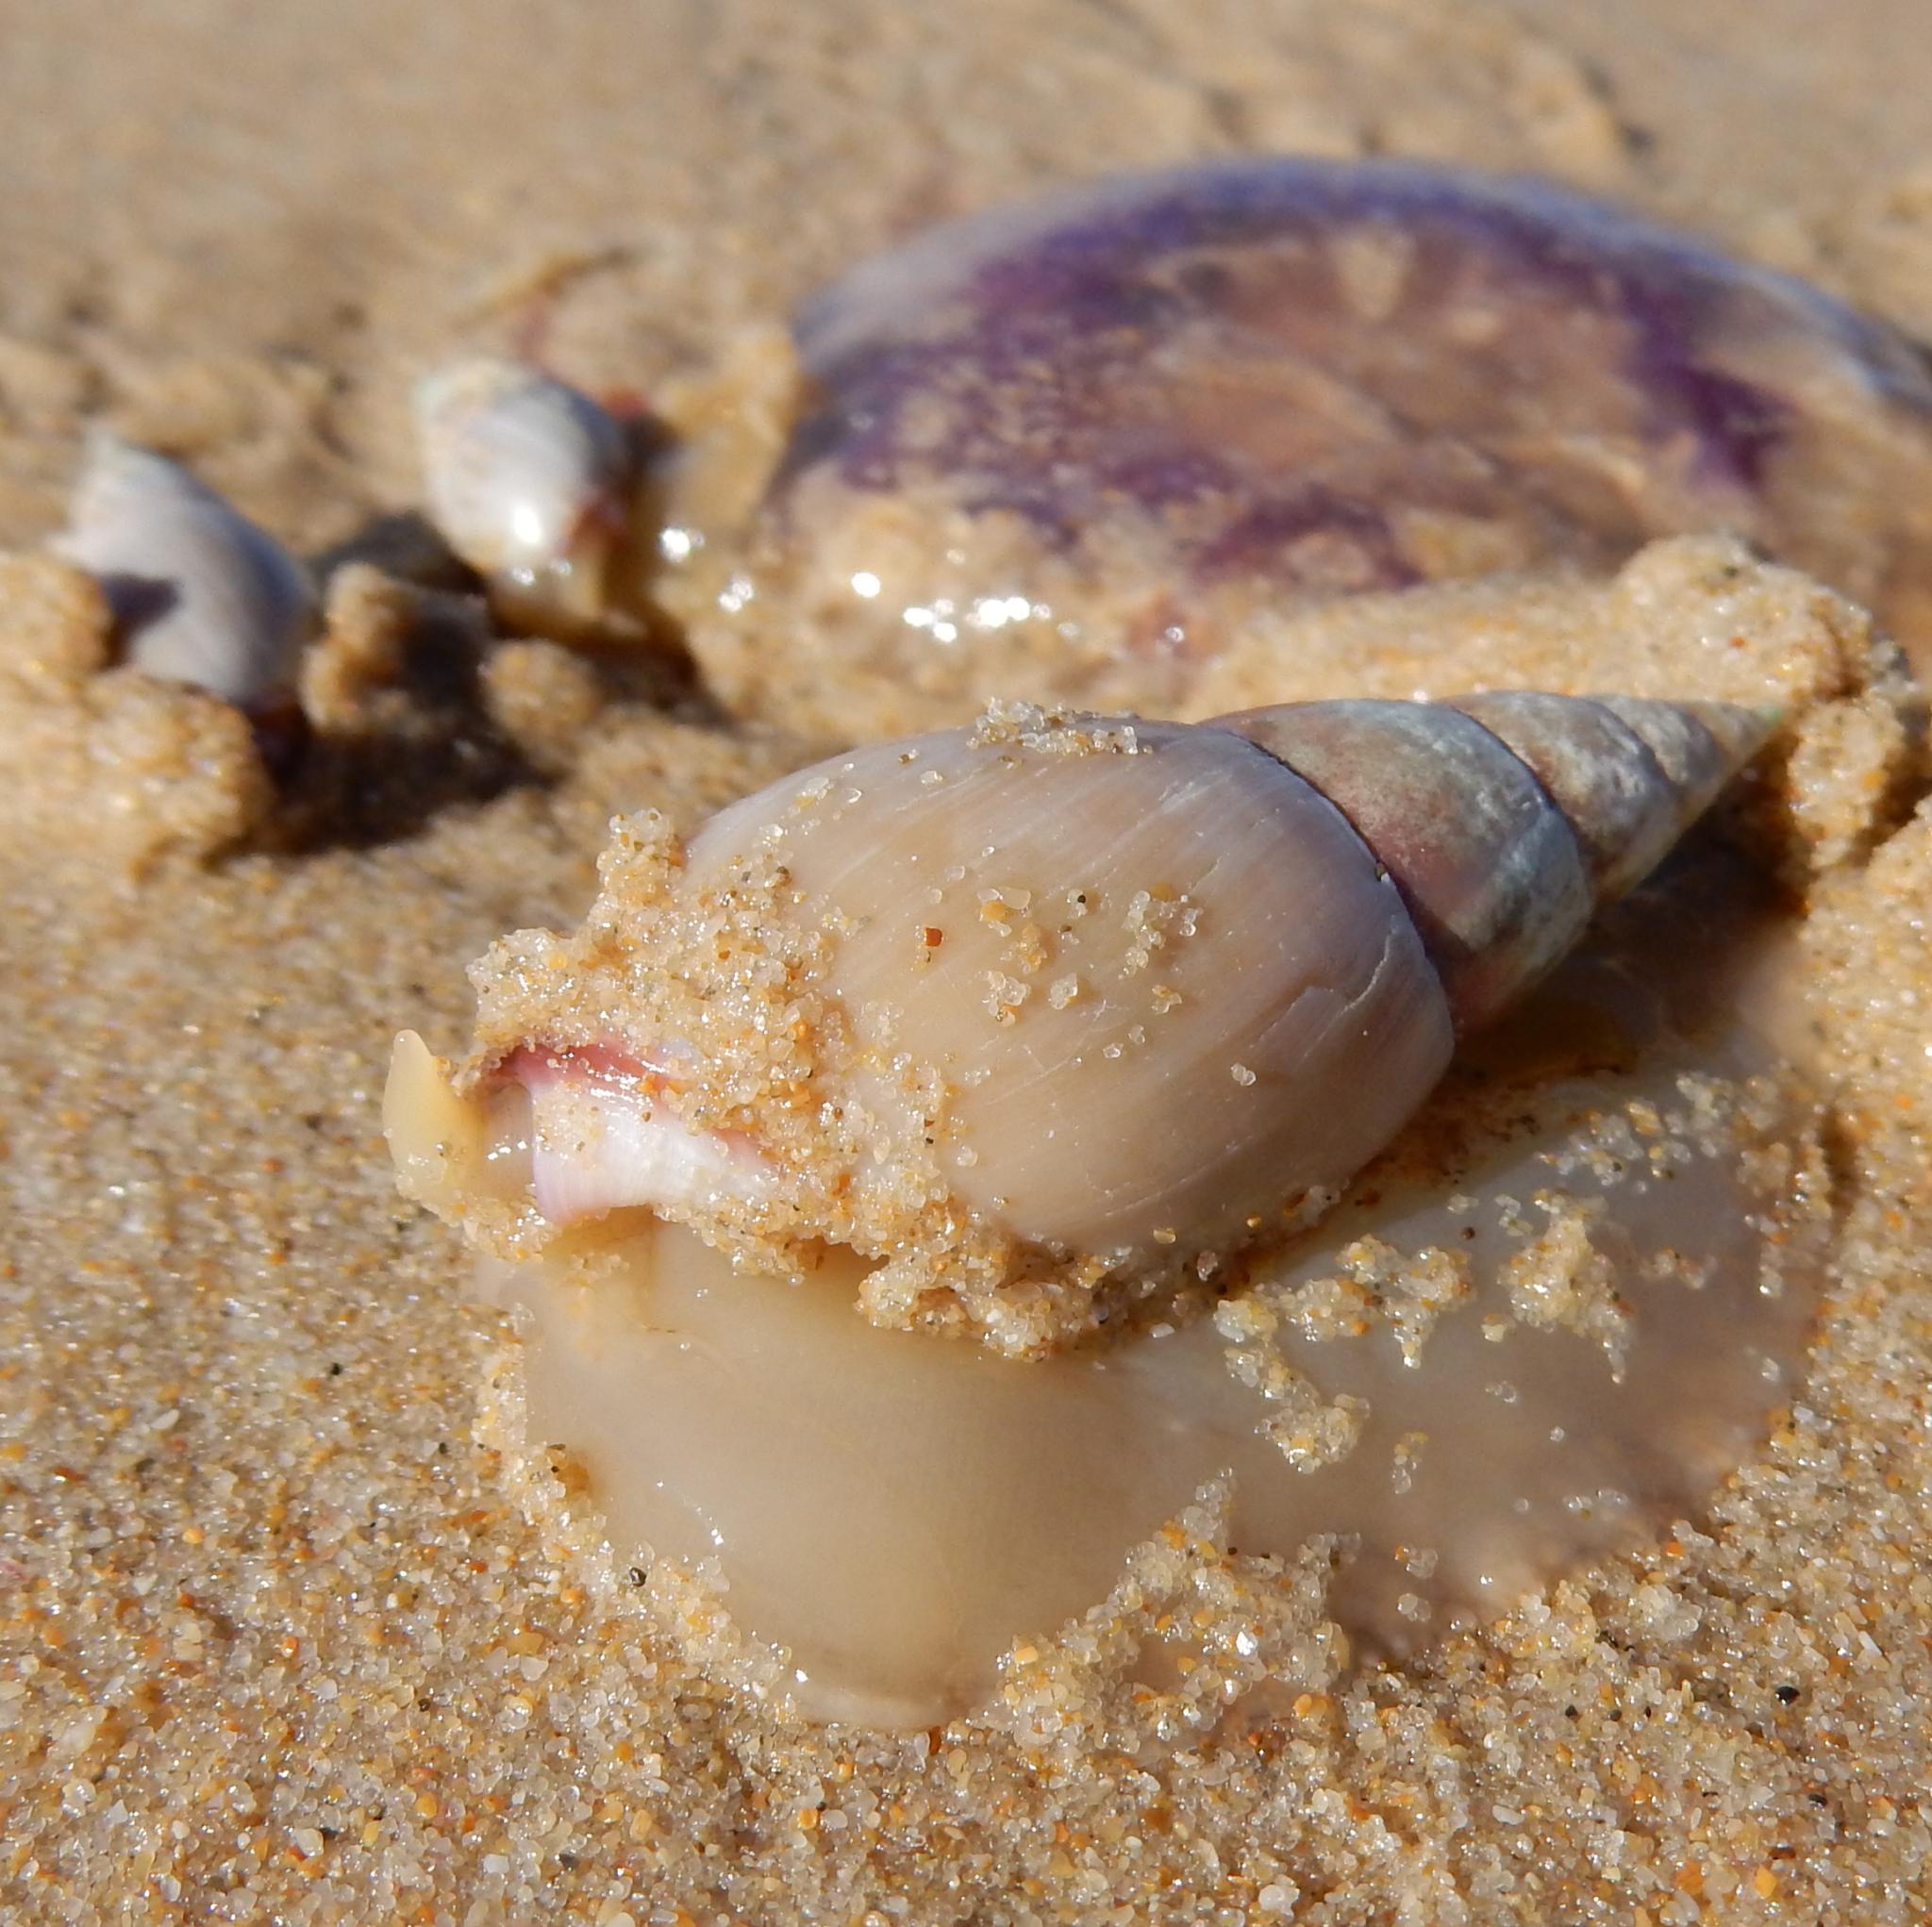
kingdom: Animalia
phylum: Mollusca
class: Gastropoda
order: Neogastropoda
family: Nassariidae
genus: Bullia
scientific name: Bullia rhodostoma
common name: Smooth plough shell
